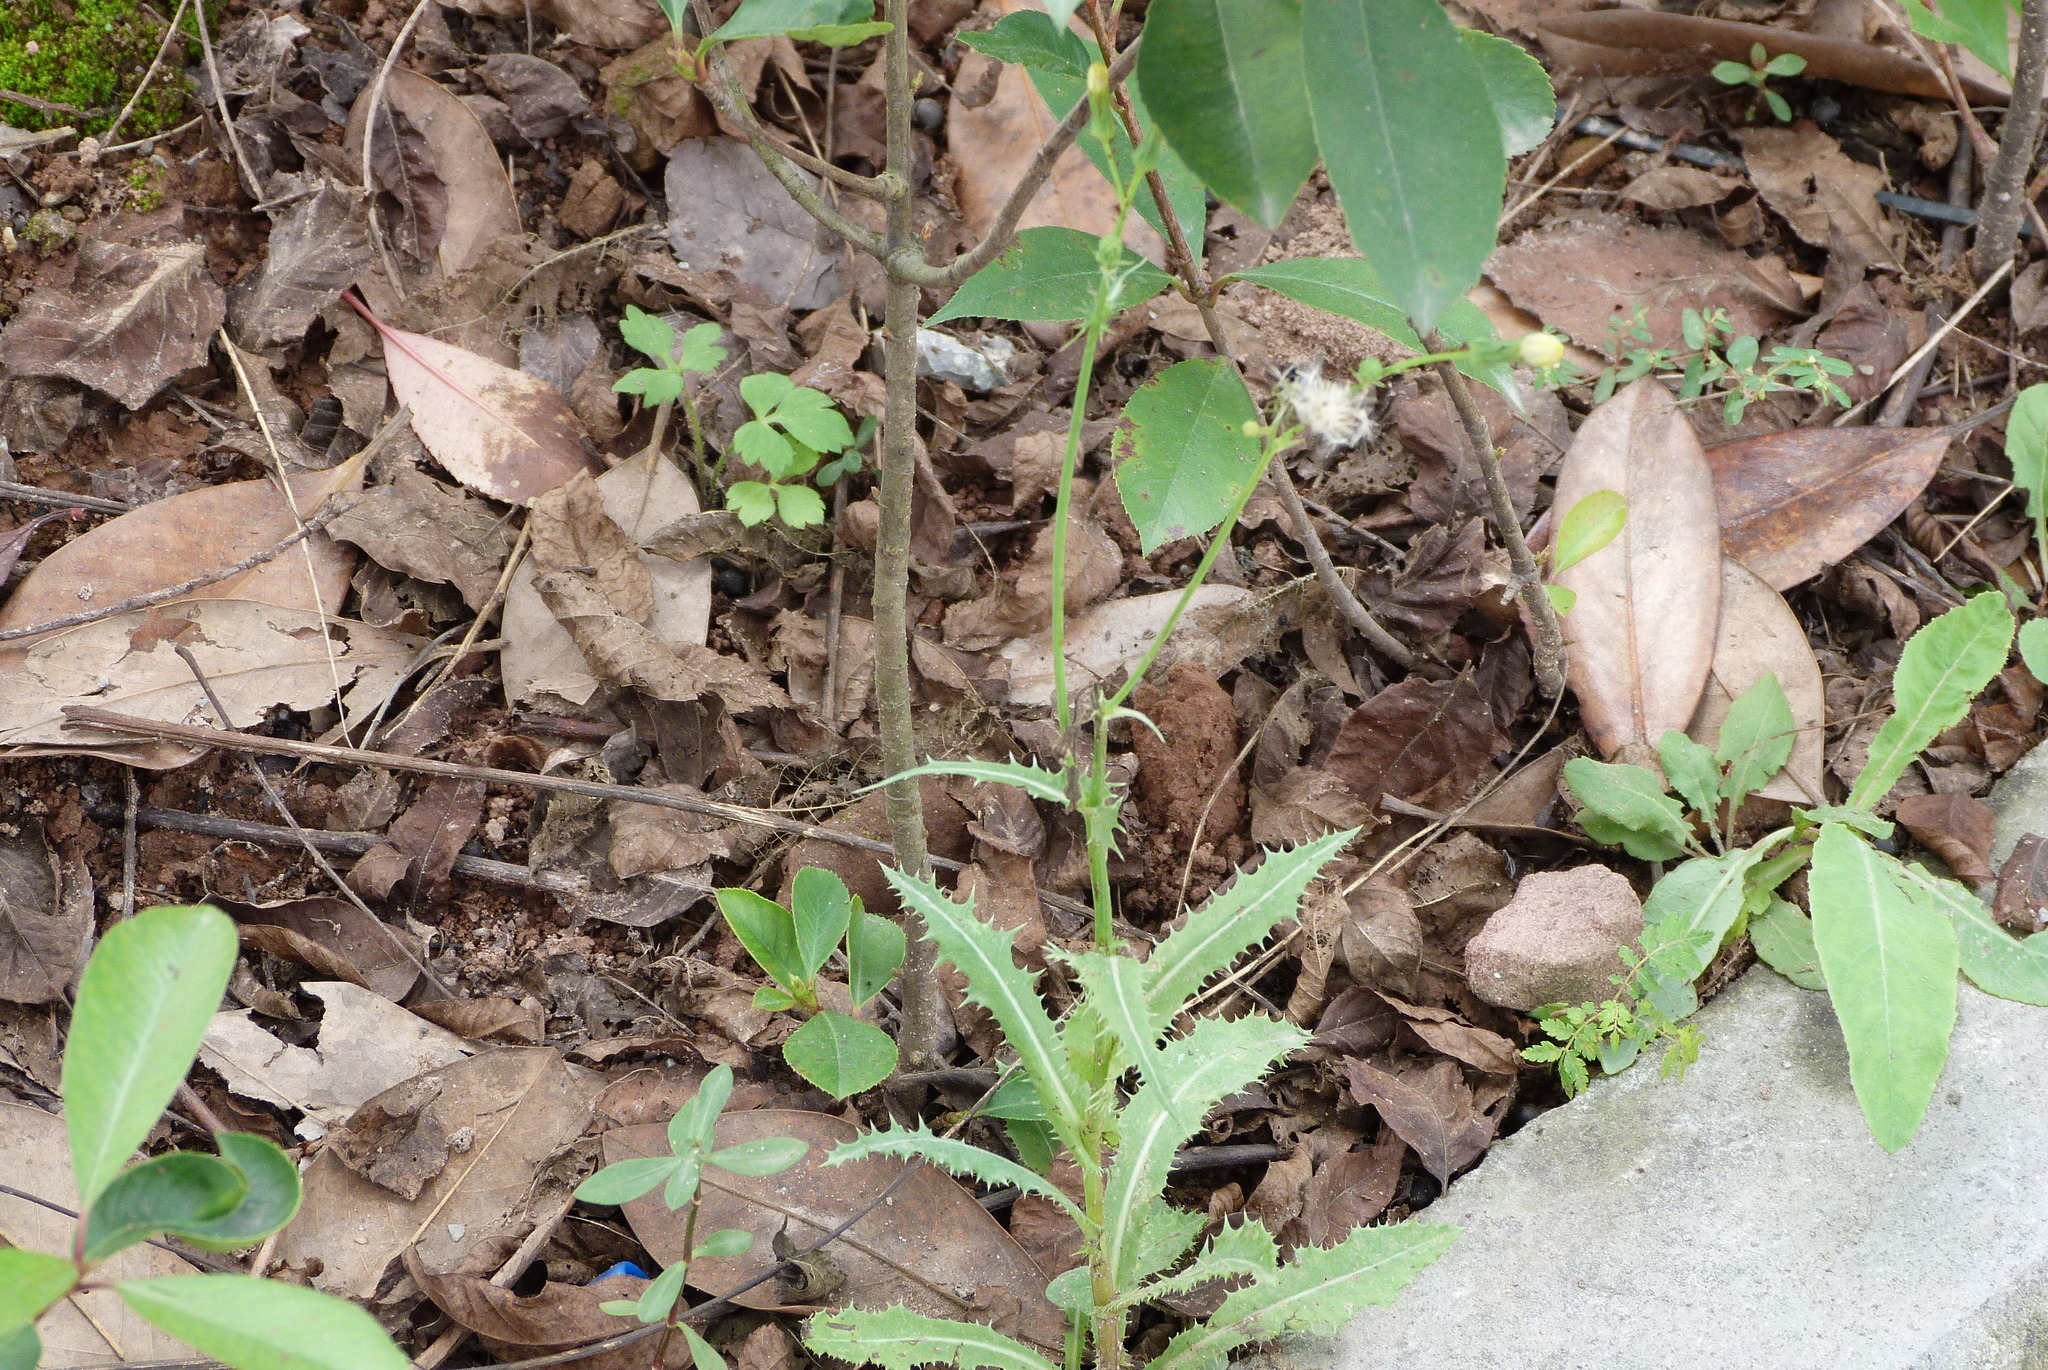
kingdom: Plantae
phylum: Tracheophyta
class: Magnoliopsida
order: Asterales
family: Asteraceae
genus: Sonchus
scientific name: Sonchus asper
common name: Prickly sow-thistle
